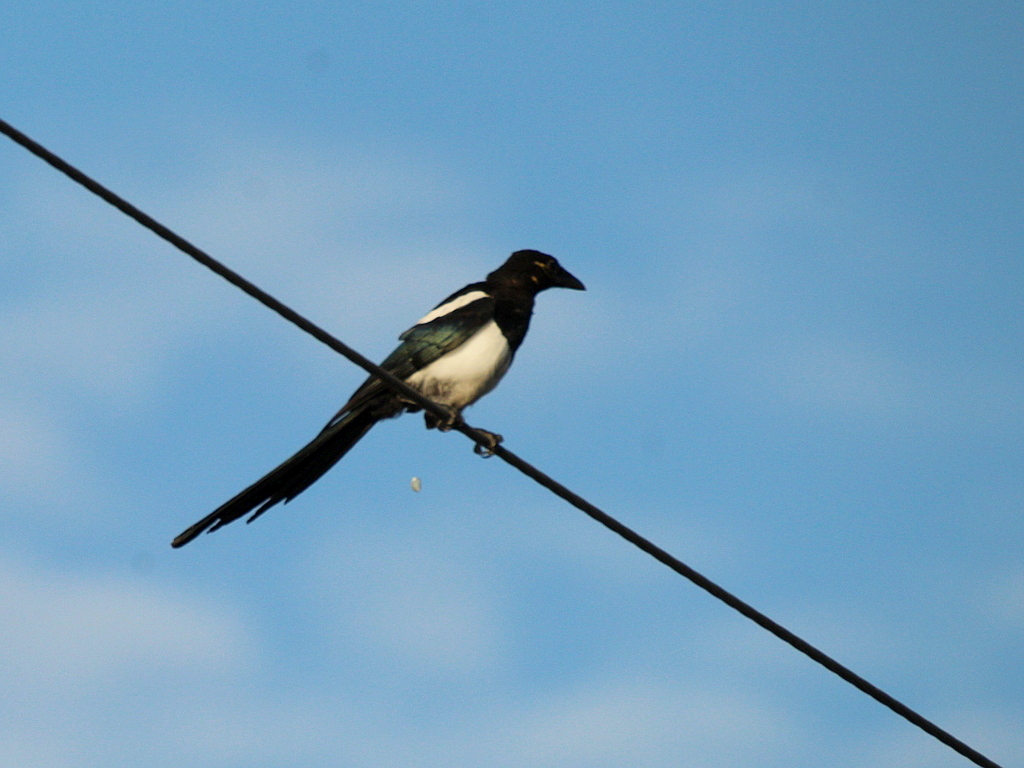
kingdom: Animalia
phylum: Chordata
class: Aves
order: Passeriformes
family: Corvidae
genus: Pica
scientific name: Pica pica
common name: Eurasian magpie
